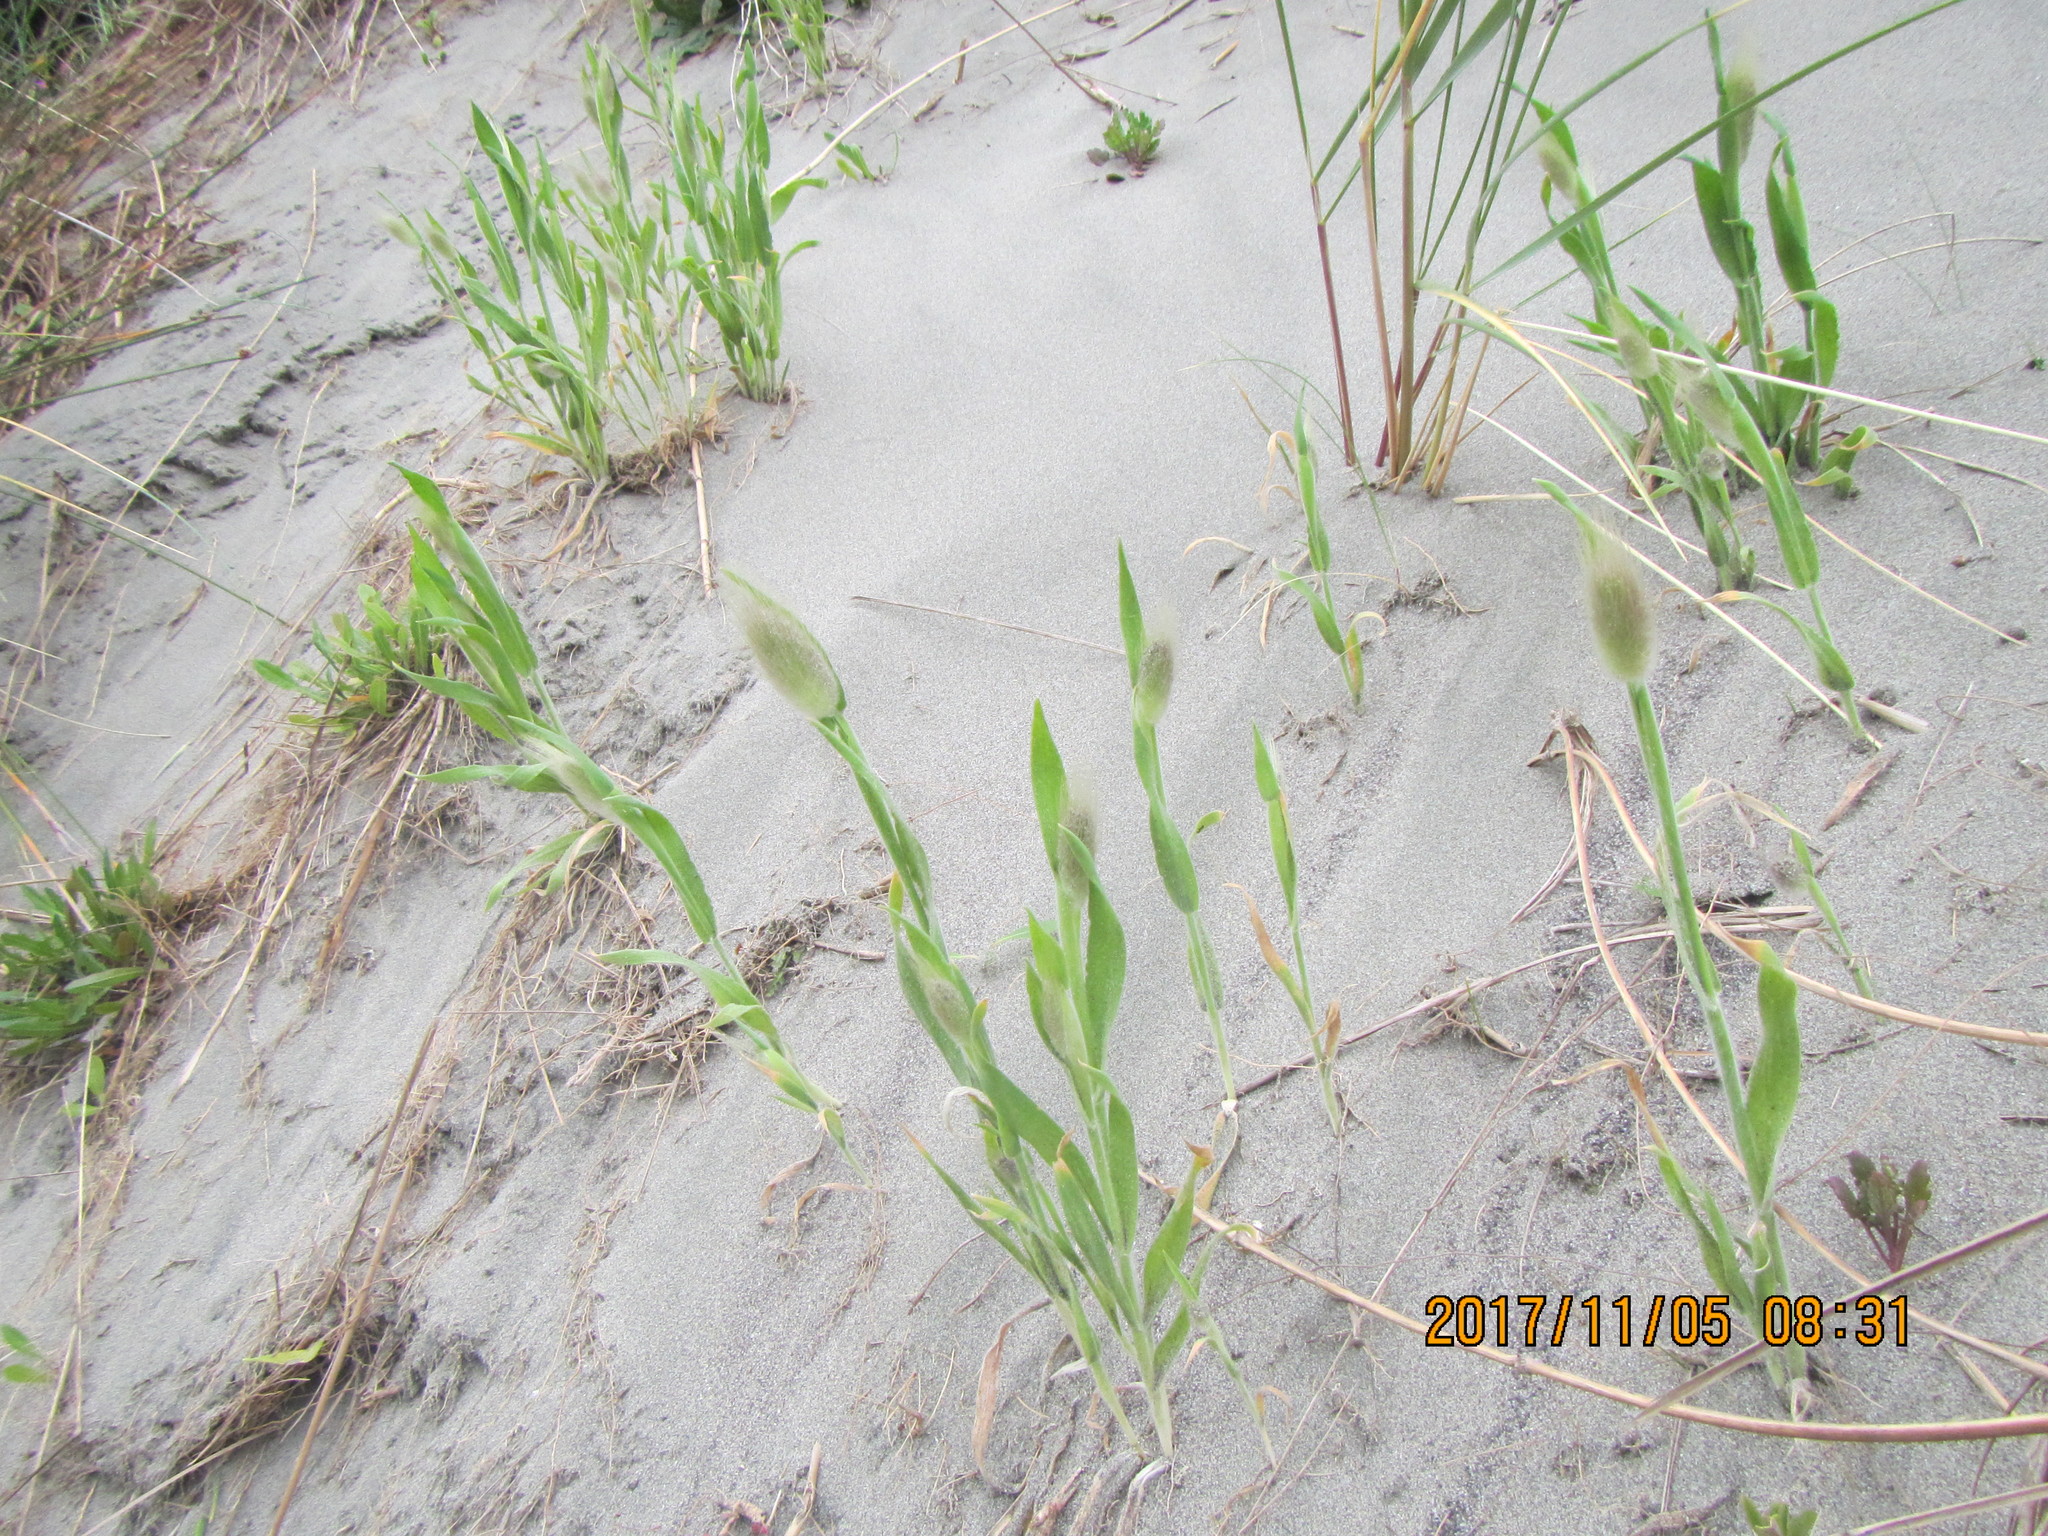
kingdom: Plantae
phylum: Tracheophyta
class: Liliopsida
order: Poales
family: Poaceae
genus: Lagurus
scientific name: Lagurus ovatus
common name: Hare's-tail
